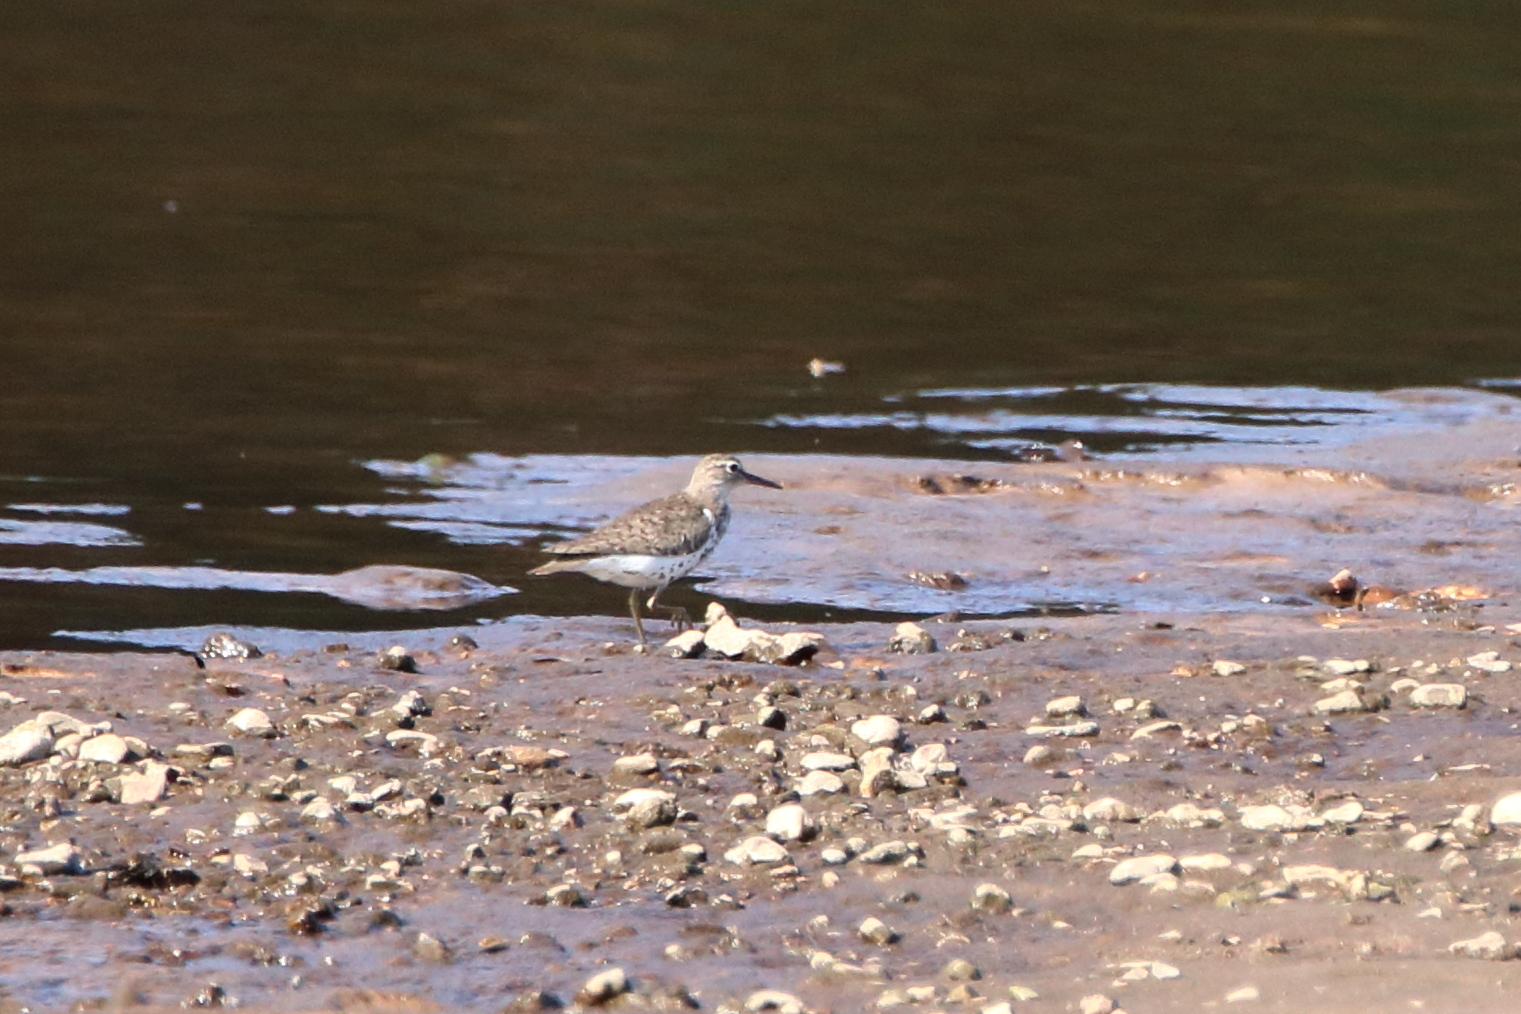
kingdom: Animalia
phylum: Chordata
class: Aves
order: Charadriiformes
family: Scolopacidae
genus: Actitis
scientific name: Actitis macularius
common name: Spotted sandpiper
